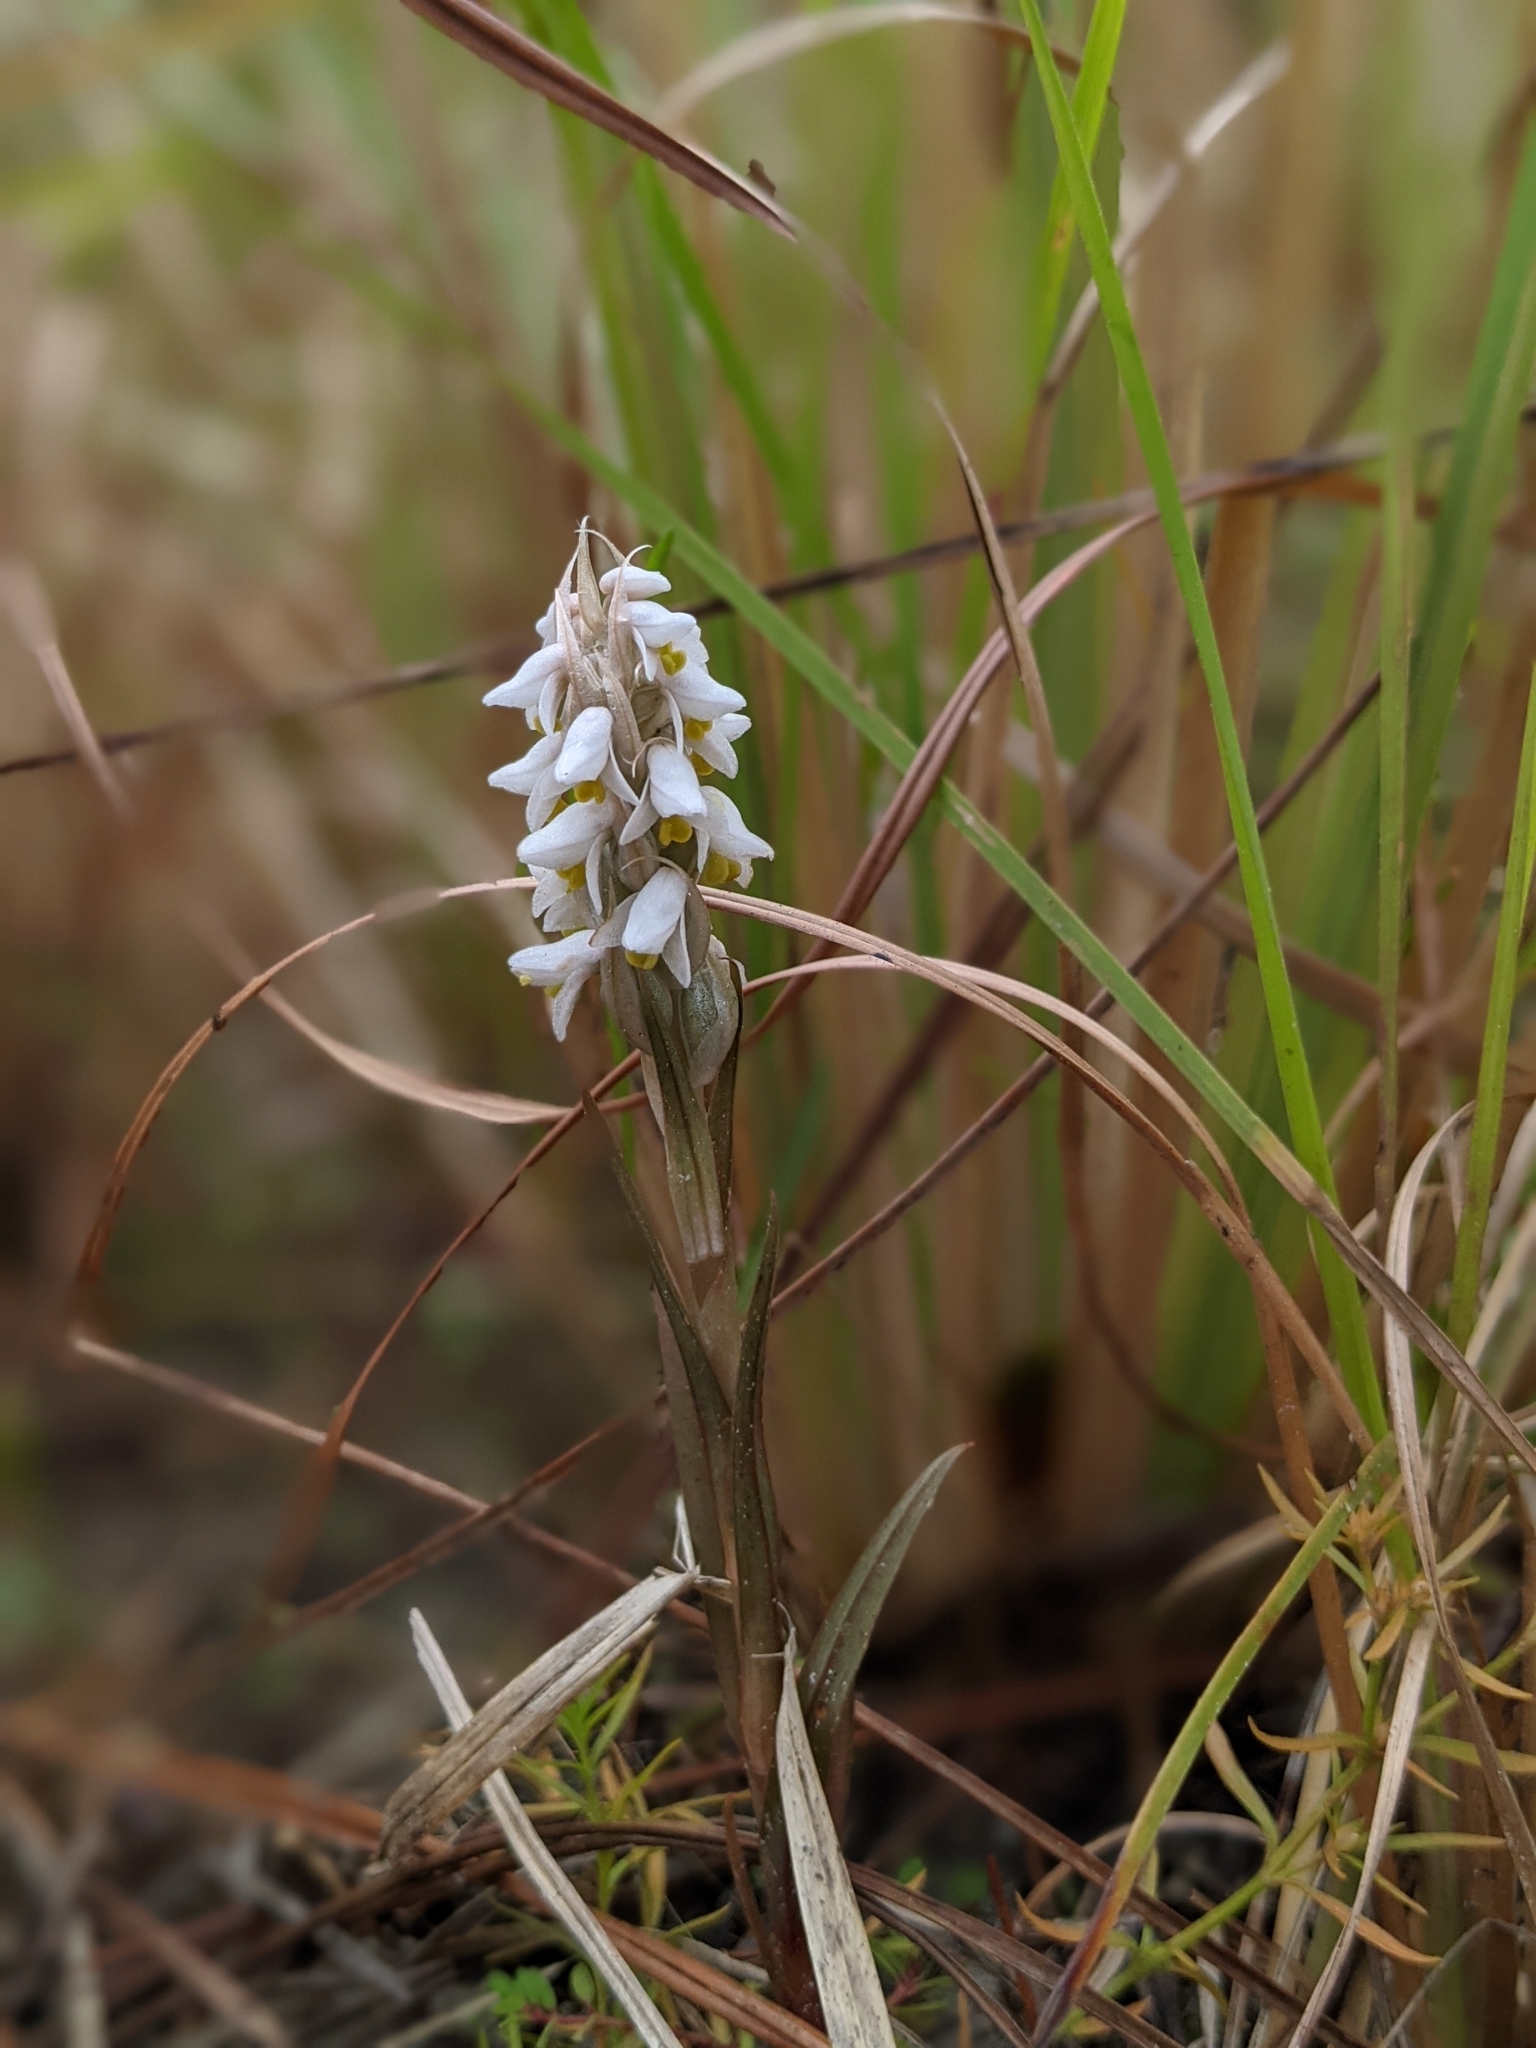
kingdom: Plantae
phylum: Tracheophyta
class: Liliopsida
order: Asparagales
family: Orchidaceae
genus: Zeuxine
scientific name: Zeuxine strateumatica
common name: Soldier's orchid
